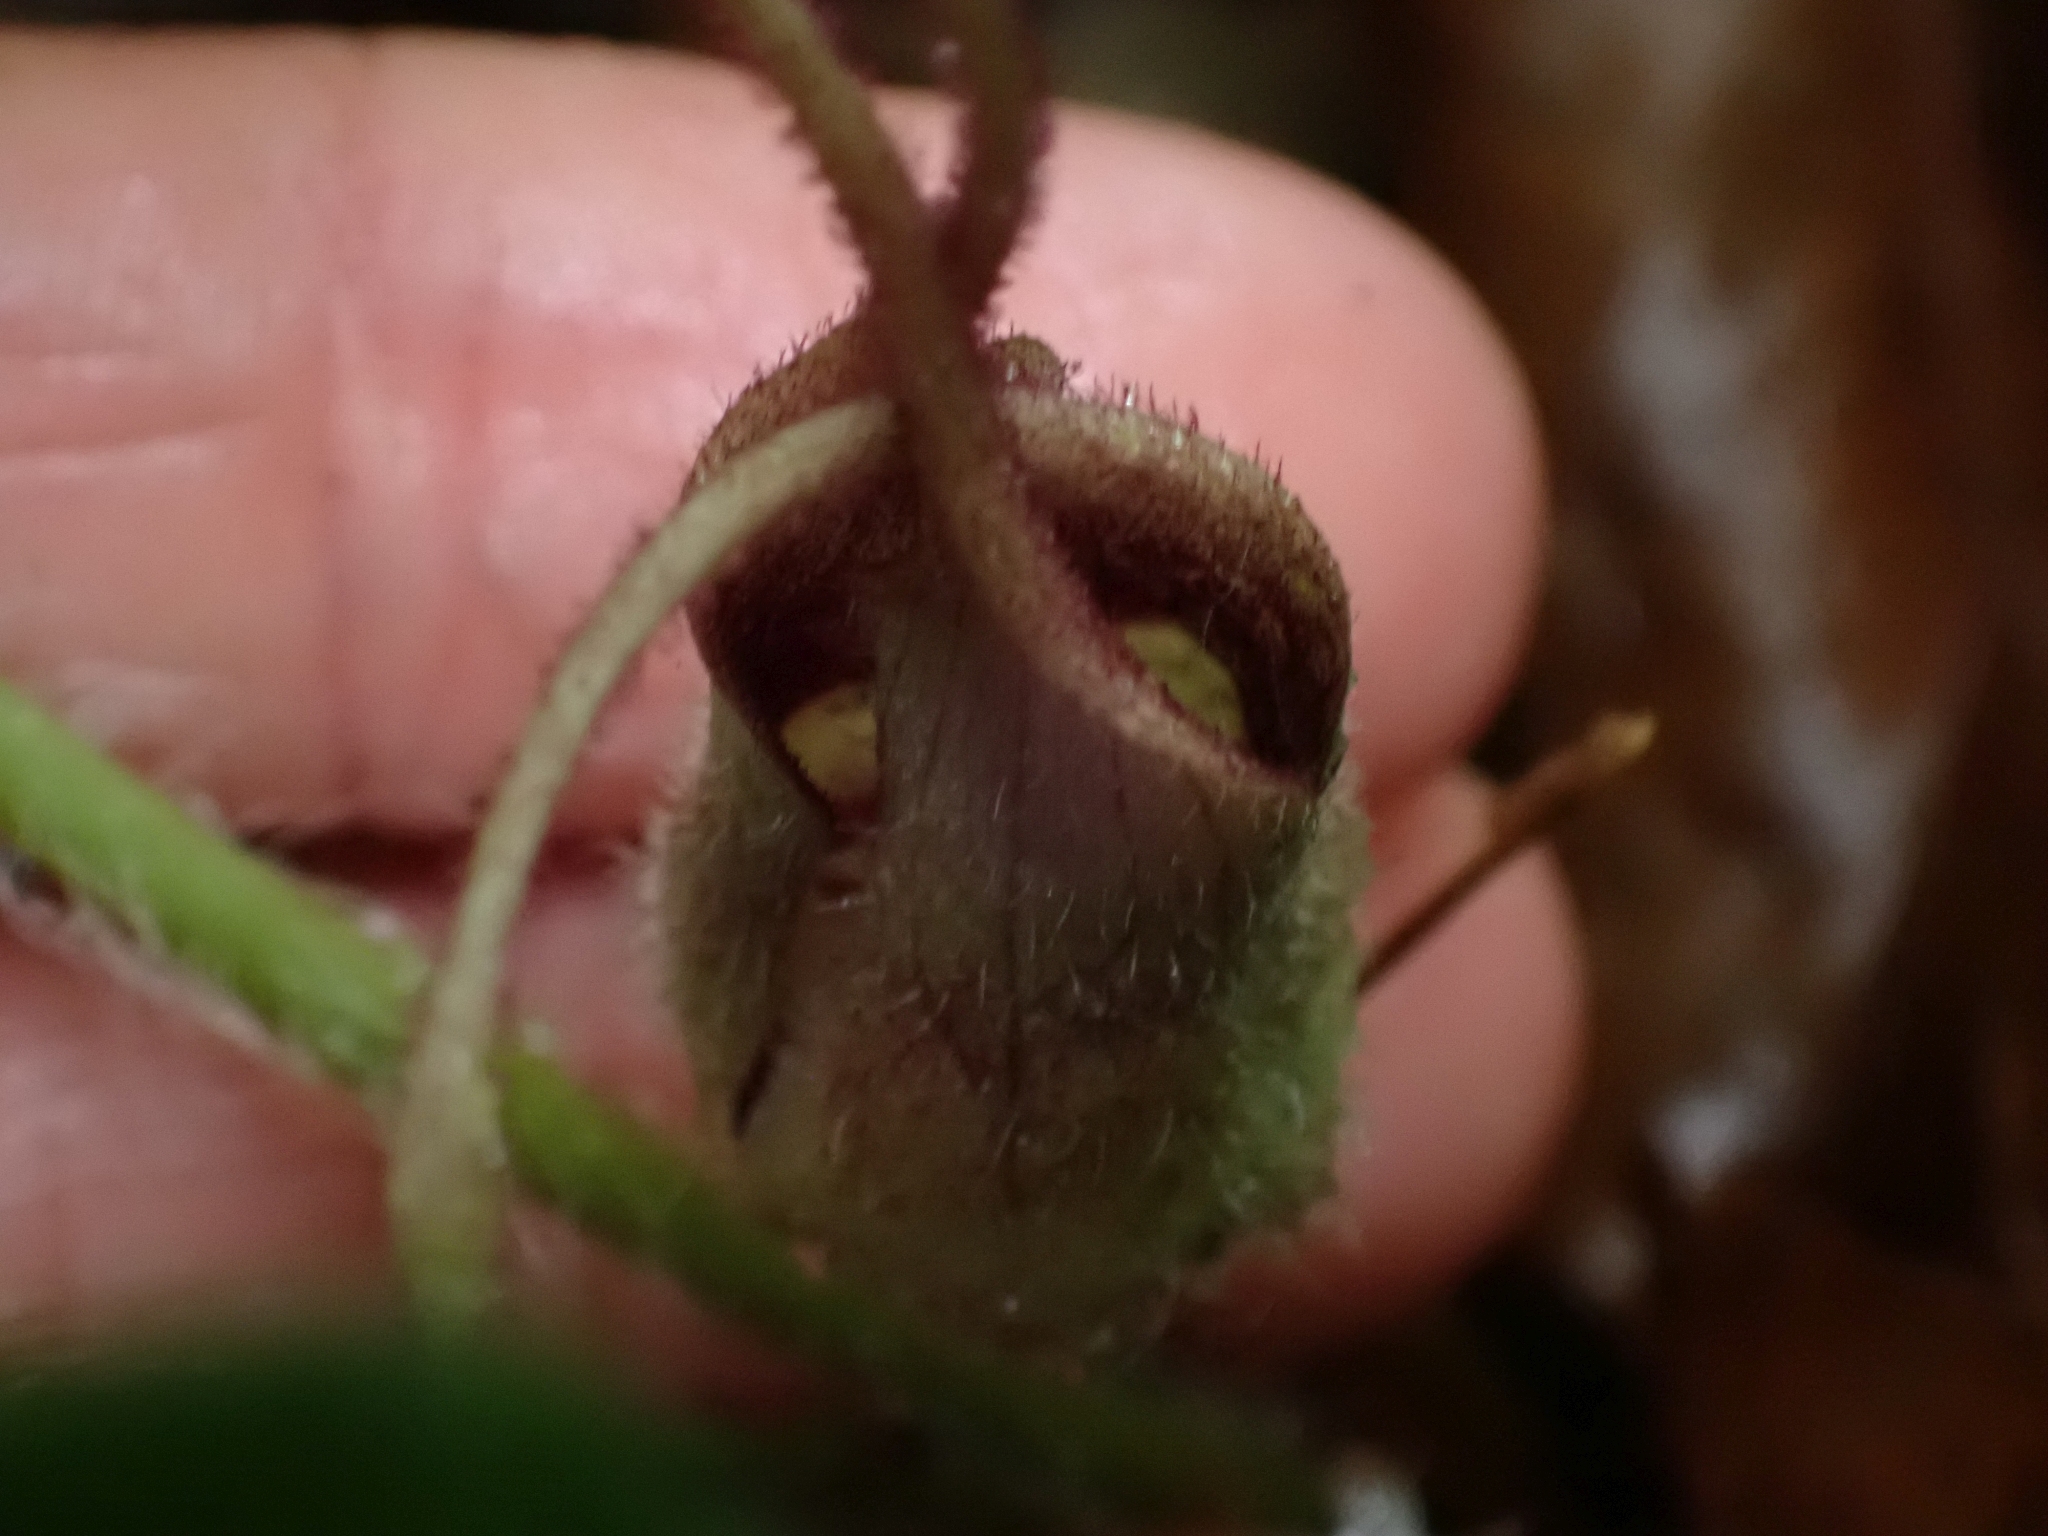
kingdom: Plantae
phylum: Tracheophyta
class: Magnoliopsida
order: Piperales
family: Aristolochiaceae
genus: Asarum
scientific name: Asarum caudatum
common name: Wild ginger
